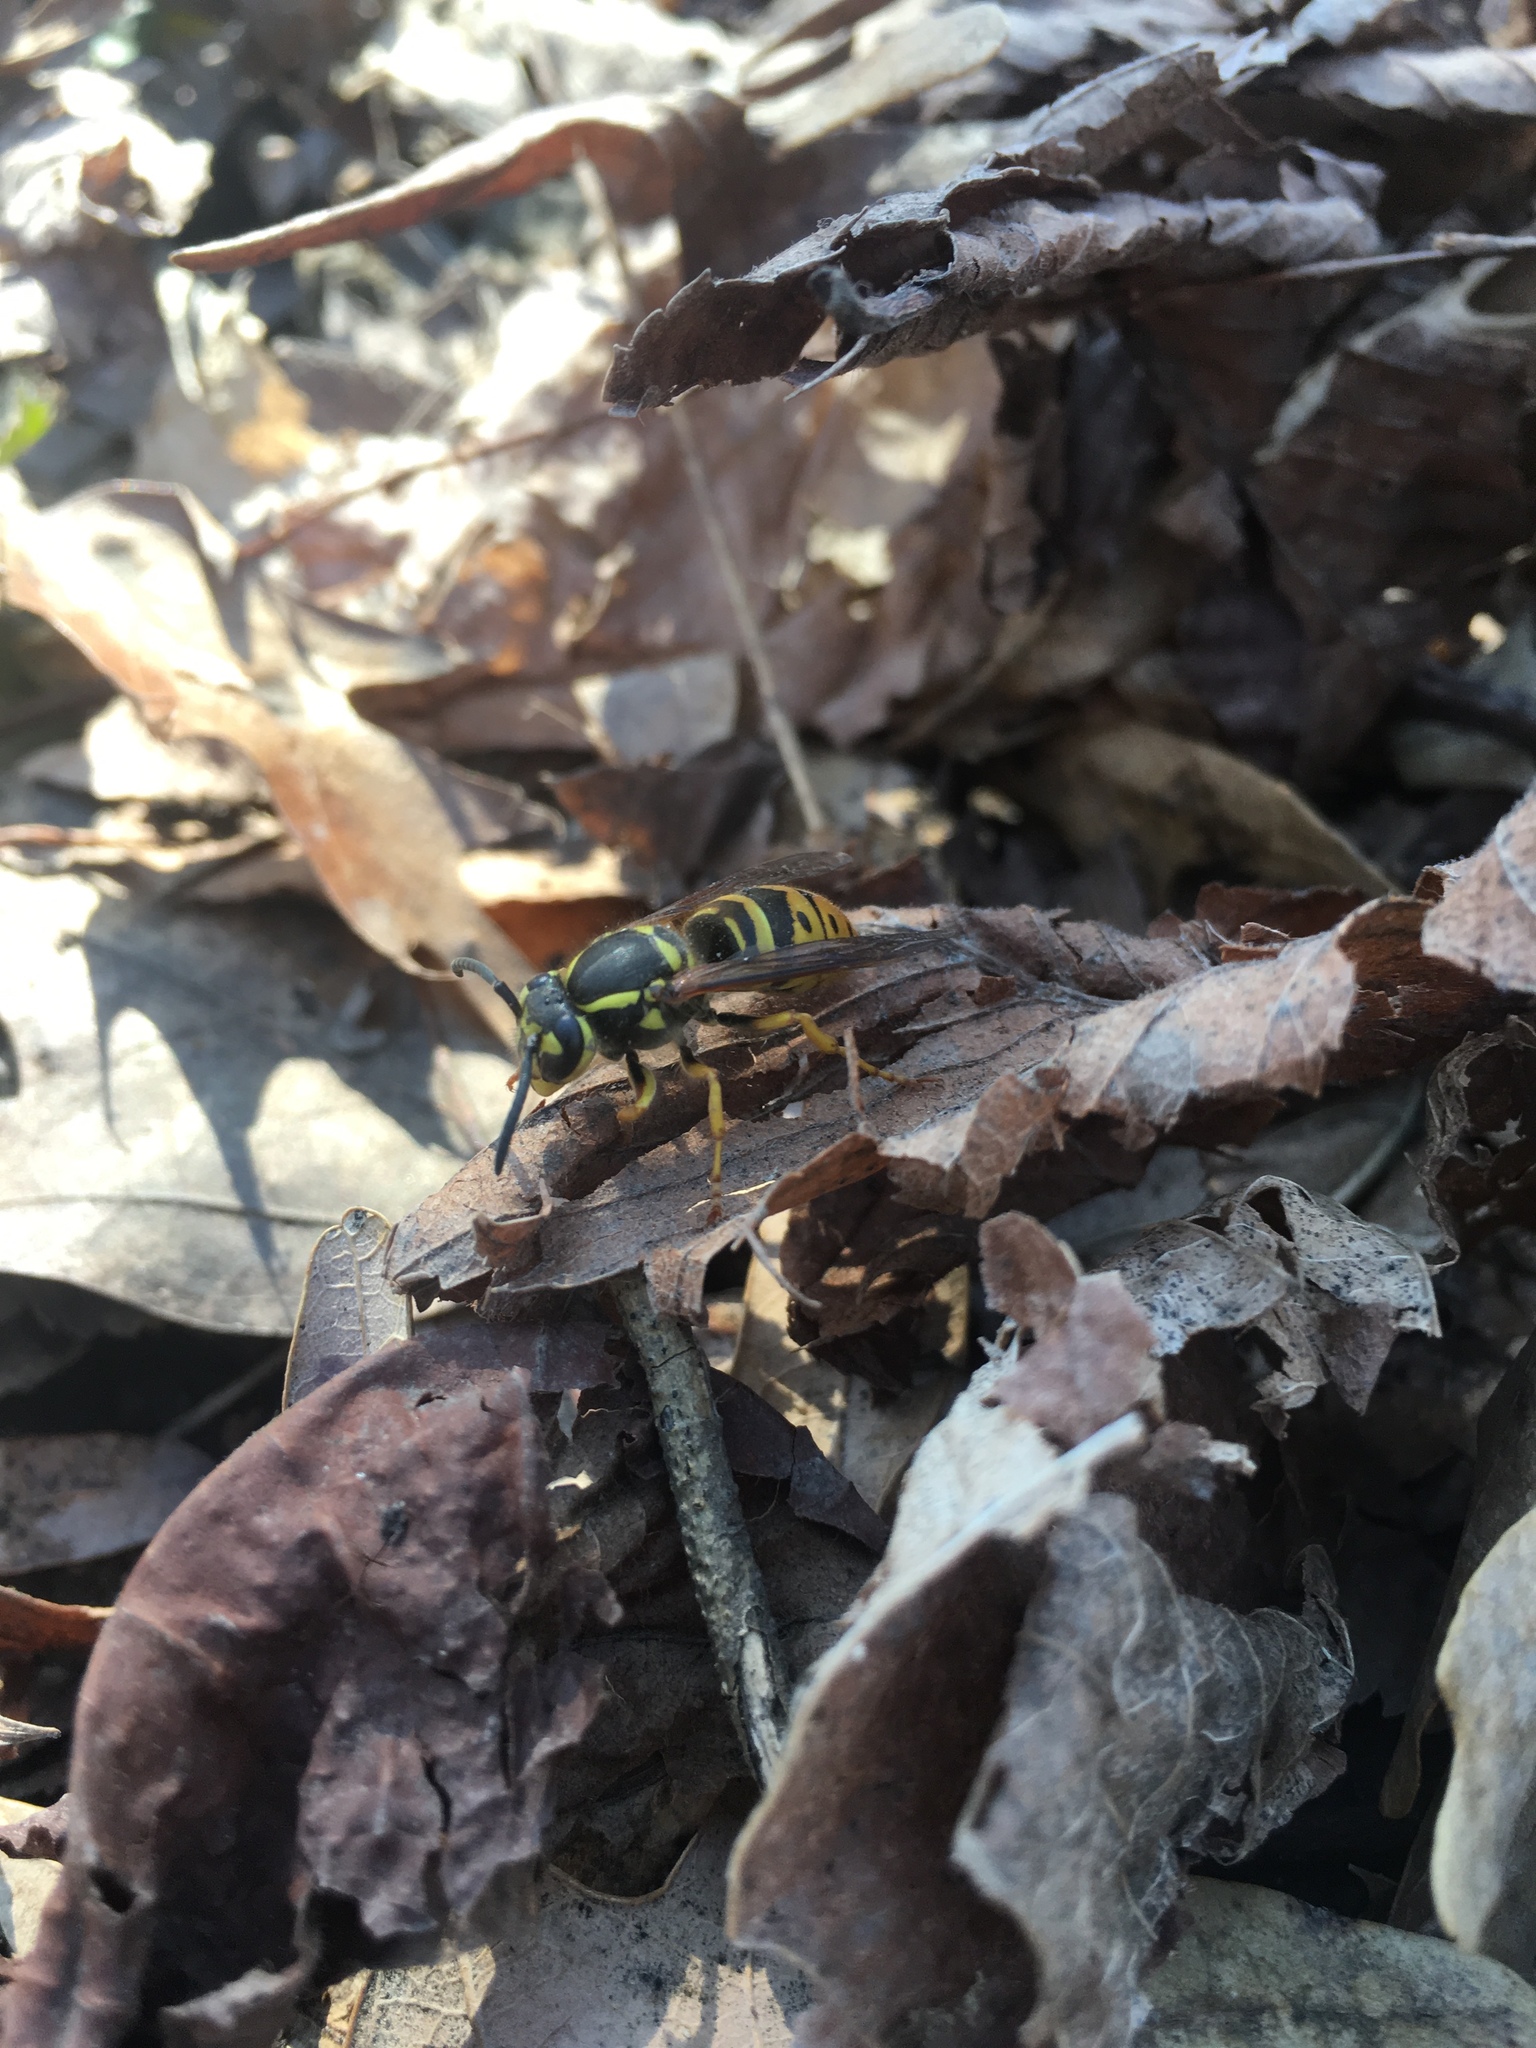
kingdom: Animalia
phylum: Arthropoda
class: Insecta
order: Hymenoptera
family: Vespidae
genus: Vespula
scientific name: Vespula maculifrons
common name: Eastern yellowjacket
